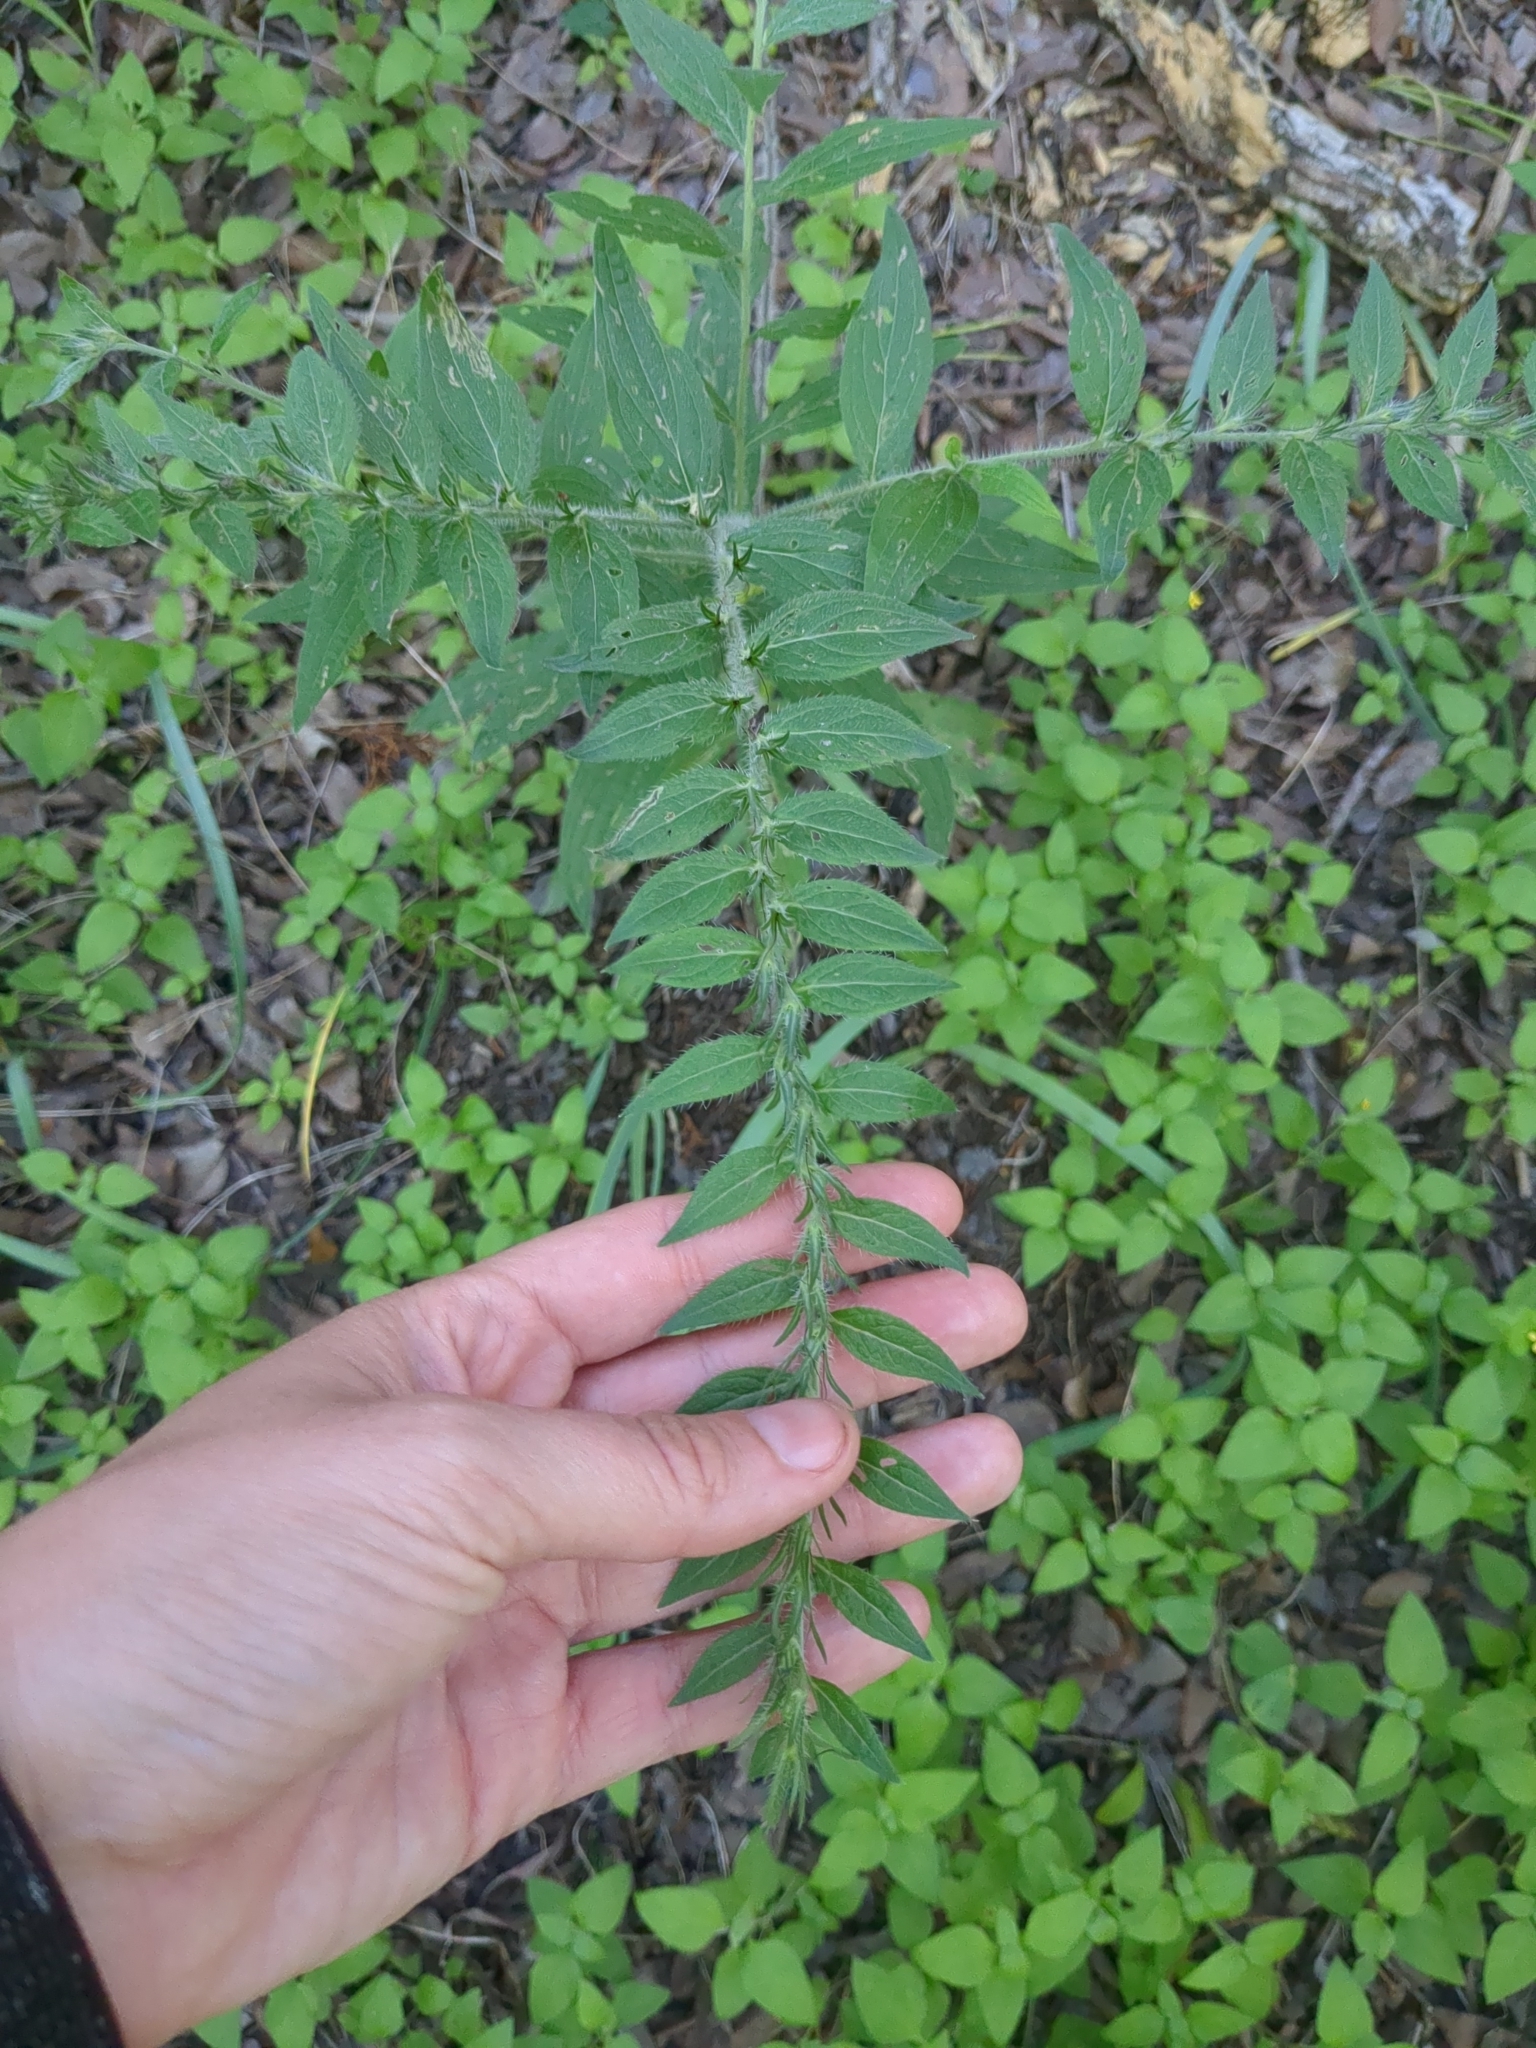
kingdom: Plantae
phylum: Tracheophyta
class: Magnoliopsida
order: Boraginales
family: Boraginaceae
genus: Lithospermum
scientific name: Lithospermum caroliniense
